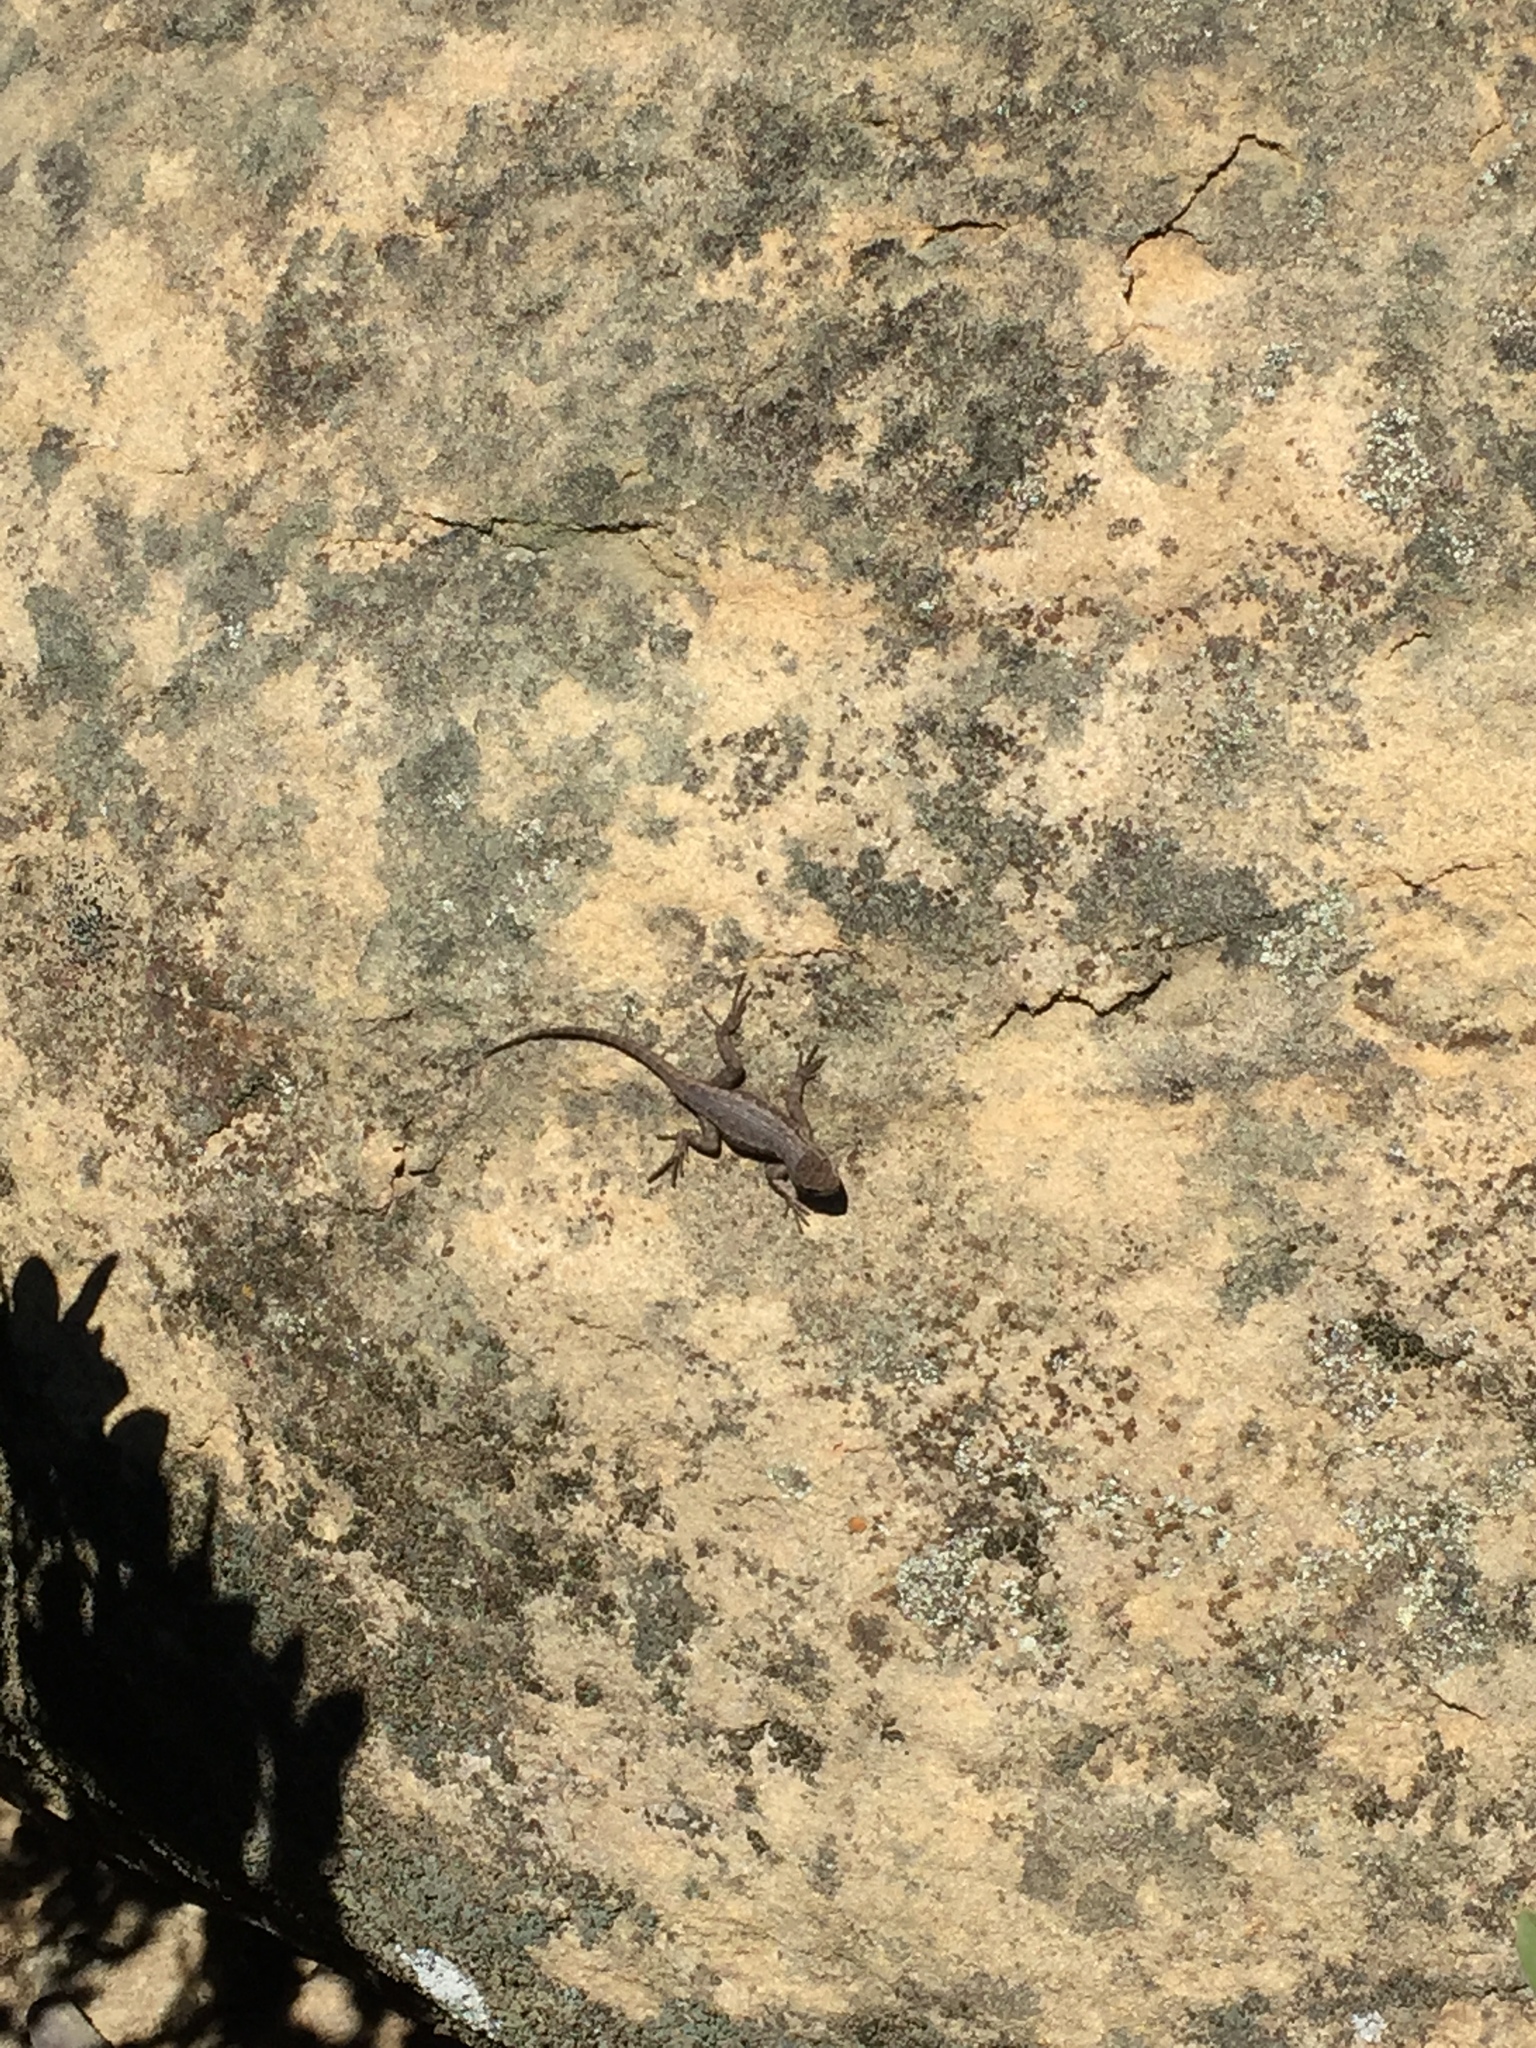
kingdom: Animalia
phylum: Chordata
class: Squamata
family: Phrynosomatidae
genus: Sceloporus
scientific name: Sceloporus occidentalis
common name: Western fence lizard
